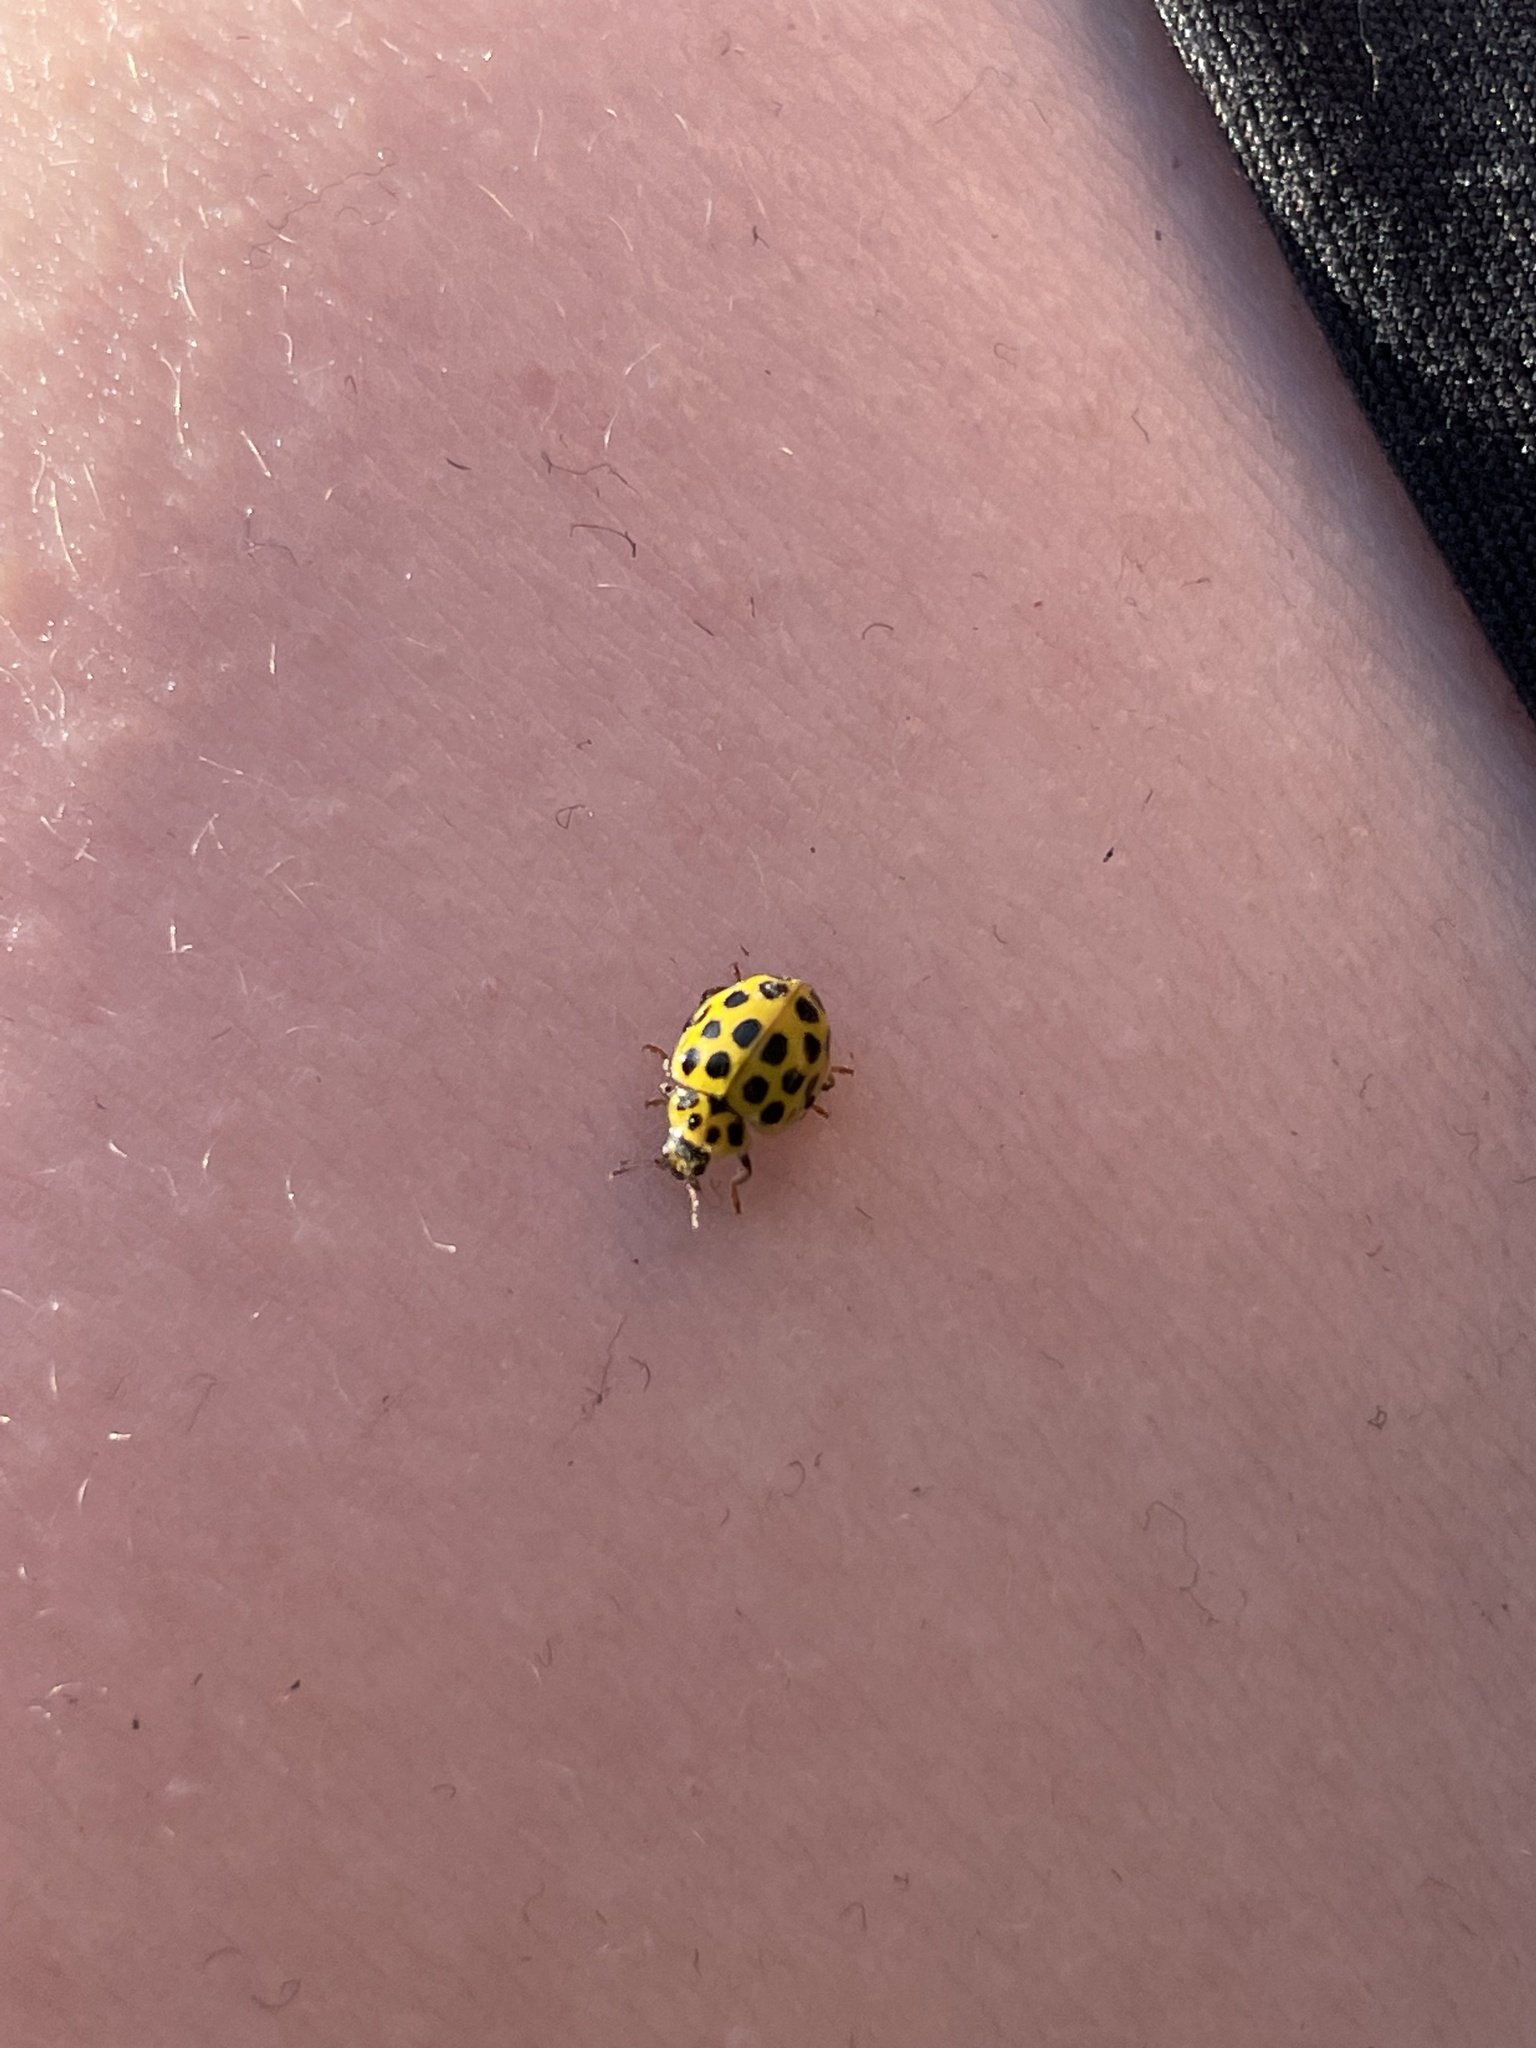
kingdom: Animalia
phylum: Arthropoda
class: Insecta
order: Coleoptera
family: Coccinellidae
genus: Psyllobora
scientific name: Psyllobora vigintiduopunctata
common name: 22-spot ladybird
